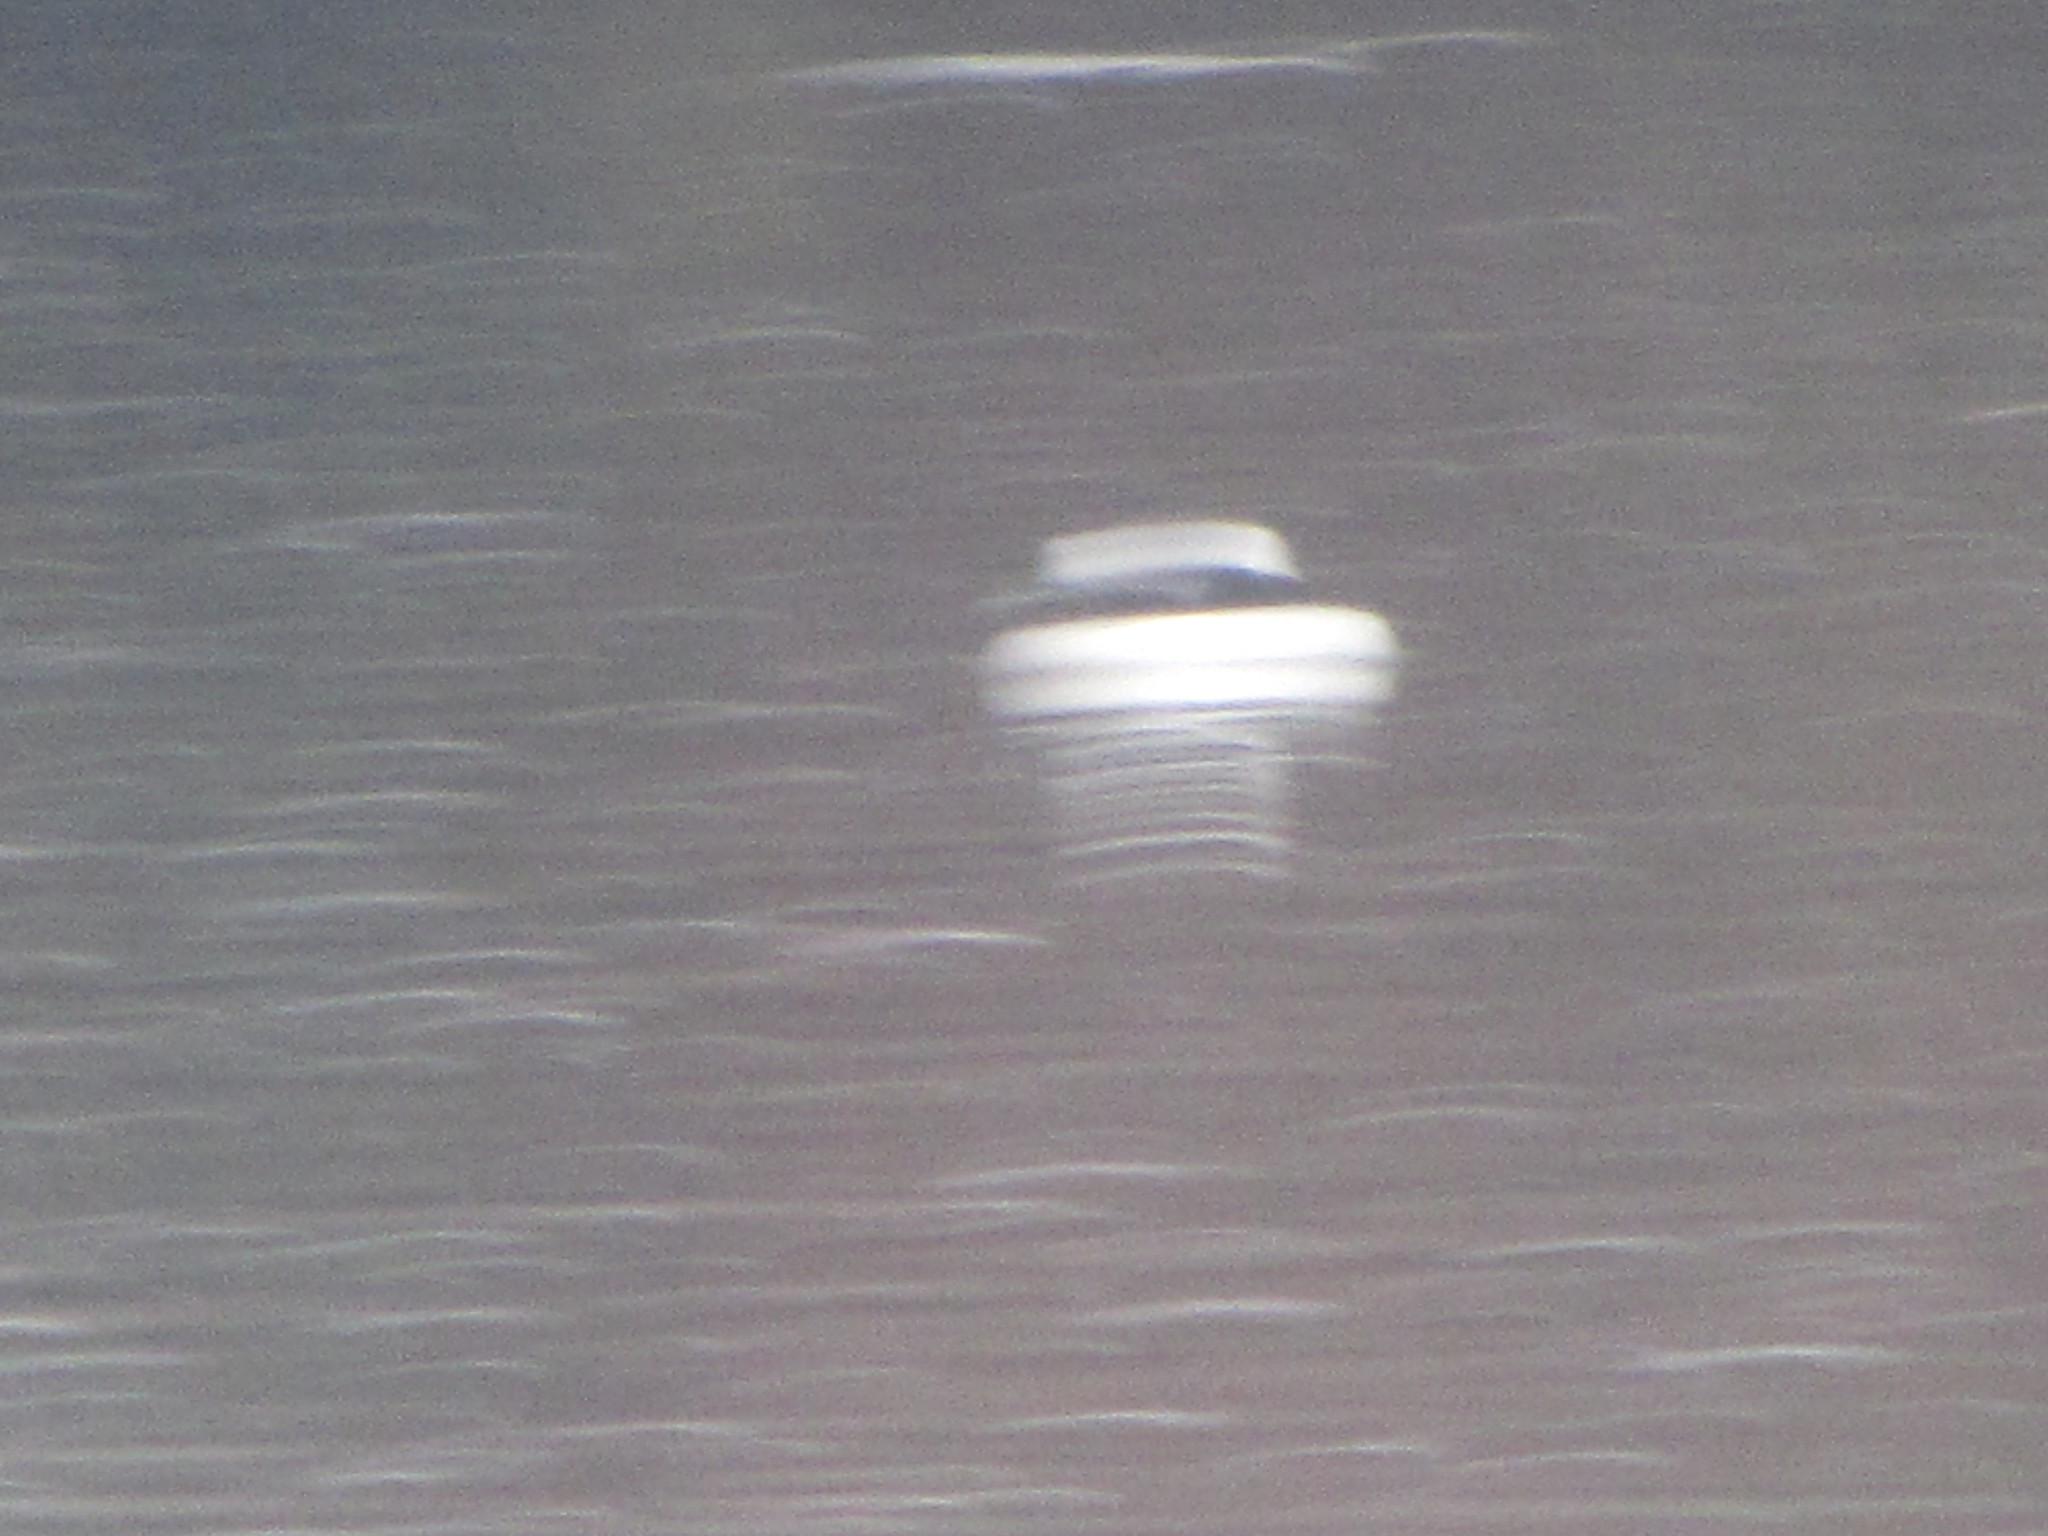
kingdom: Animalia
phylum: Chordata
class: Aves
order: Anseriformes
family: Anatidae
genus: Bucephala
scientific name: Bucephala albeola
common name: Bufflehead
